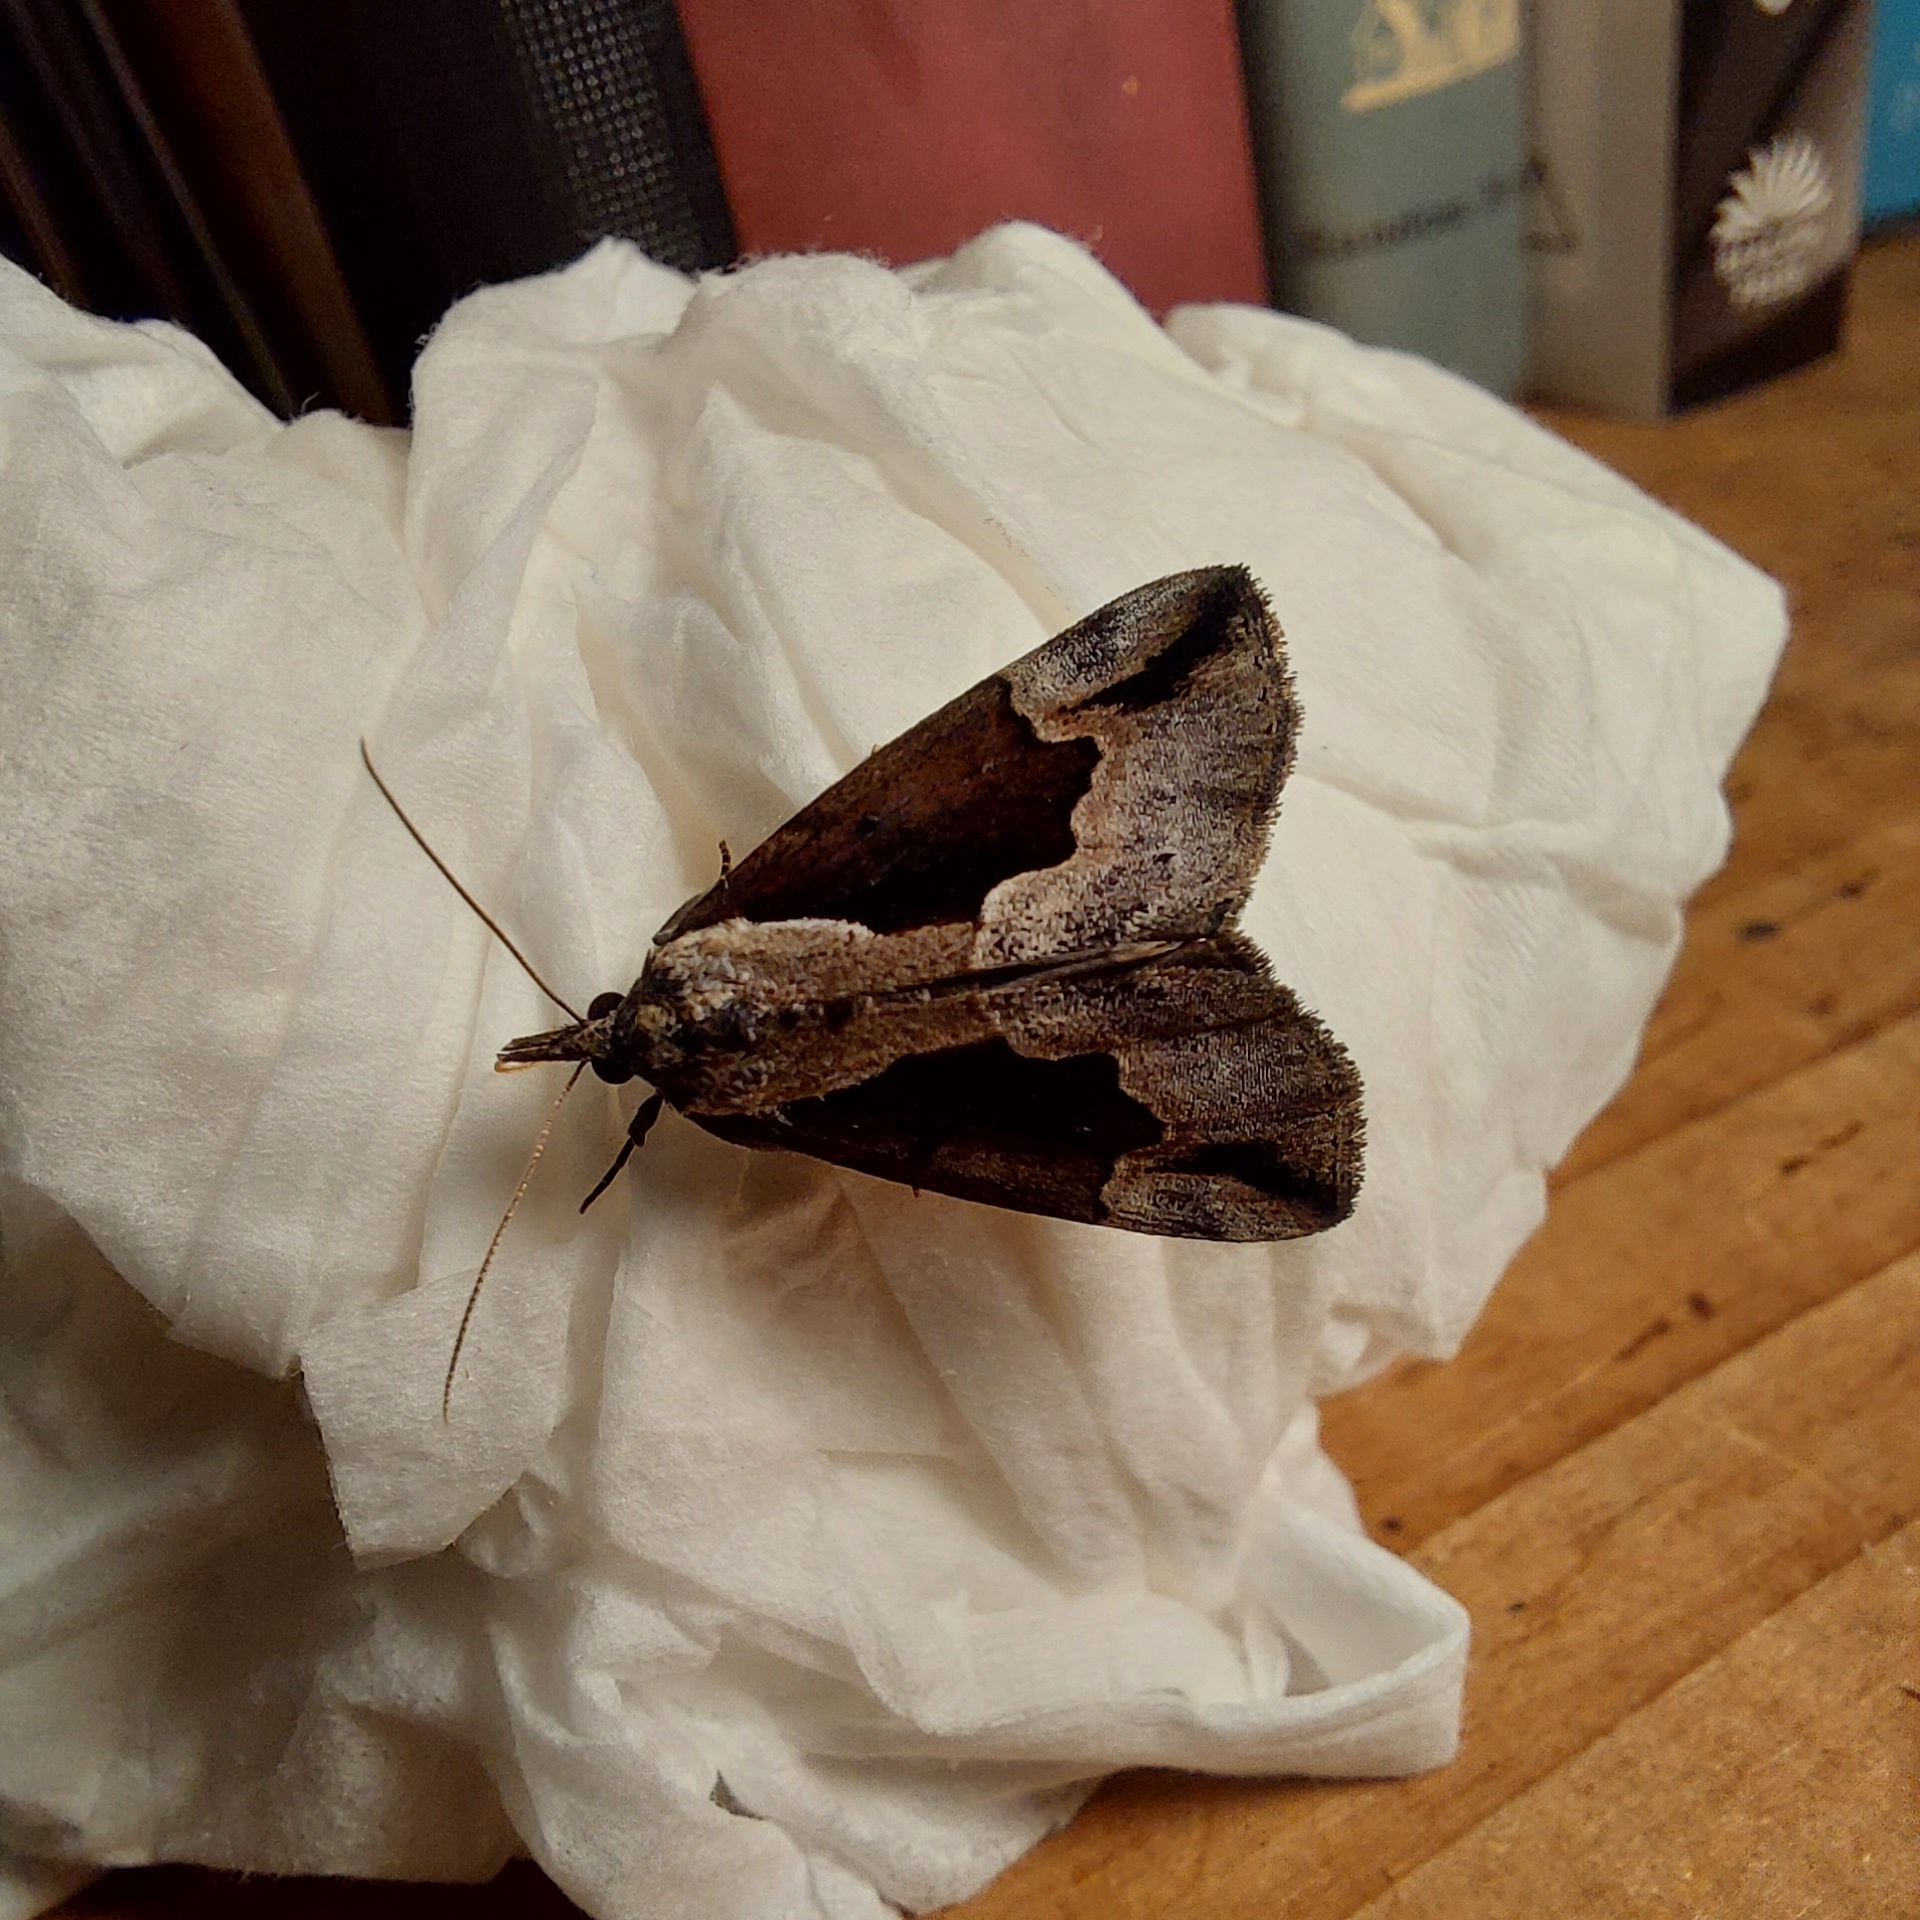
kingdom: Animalia
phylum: Arthropoda
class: Insecta
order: Lepidoptera
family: Erebidae
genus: Hypena
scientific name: Hypena baltimoralis
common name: Baltimore snout
